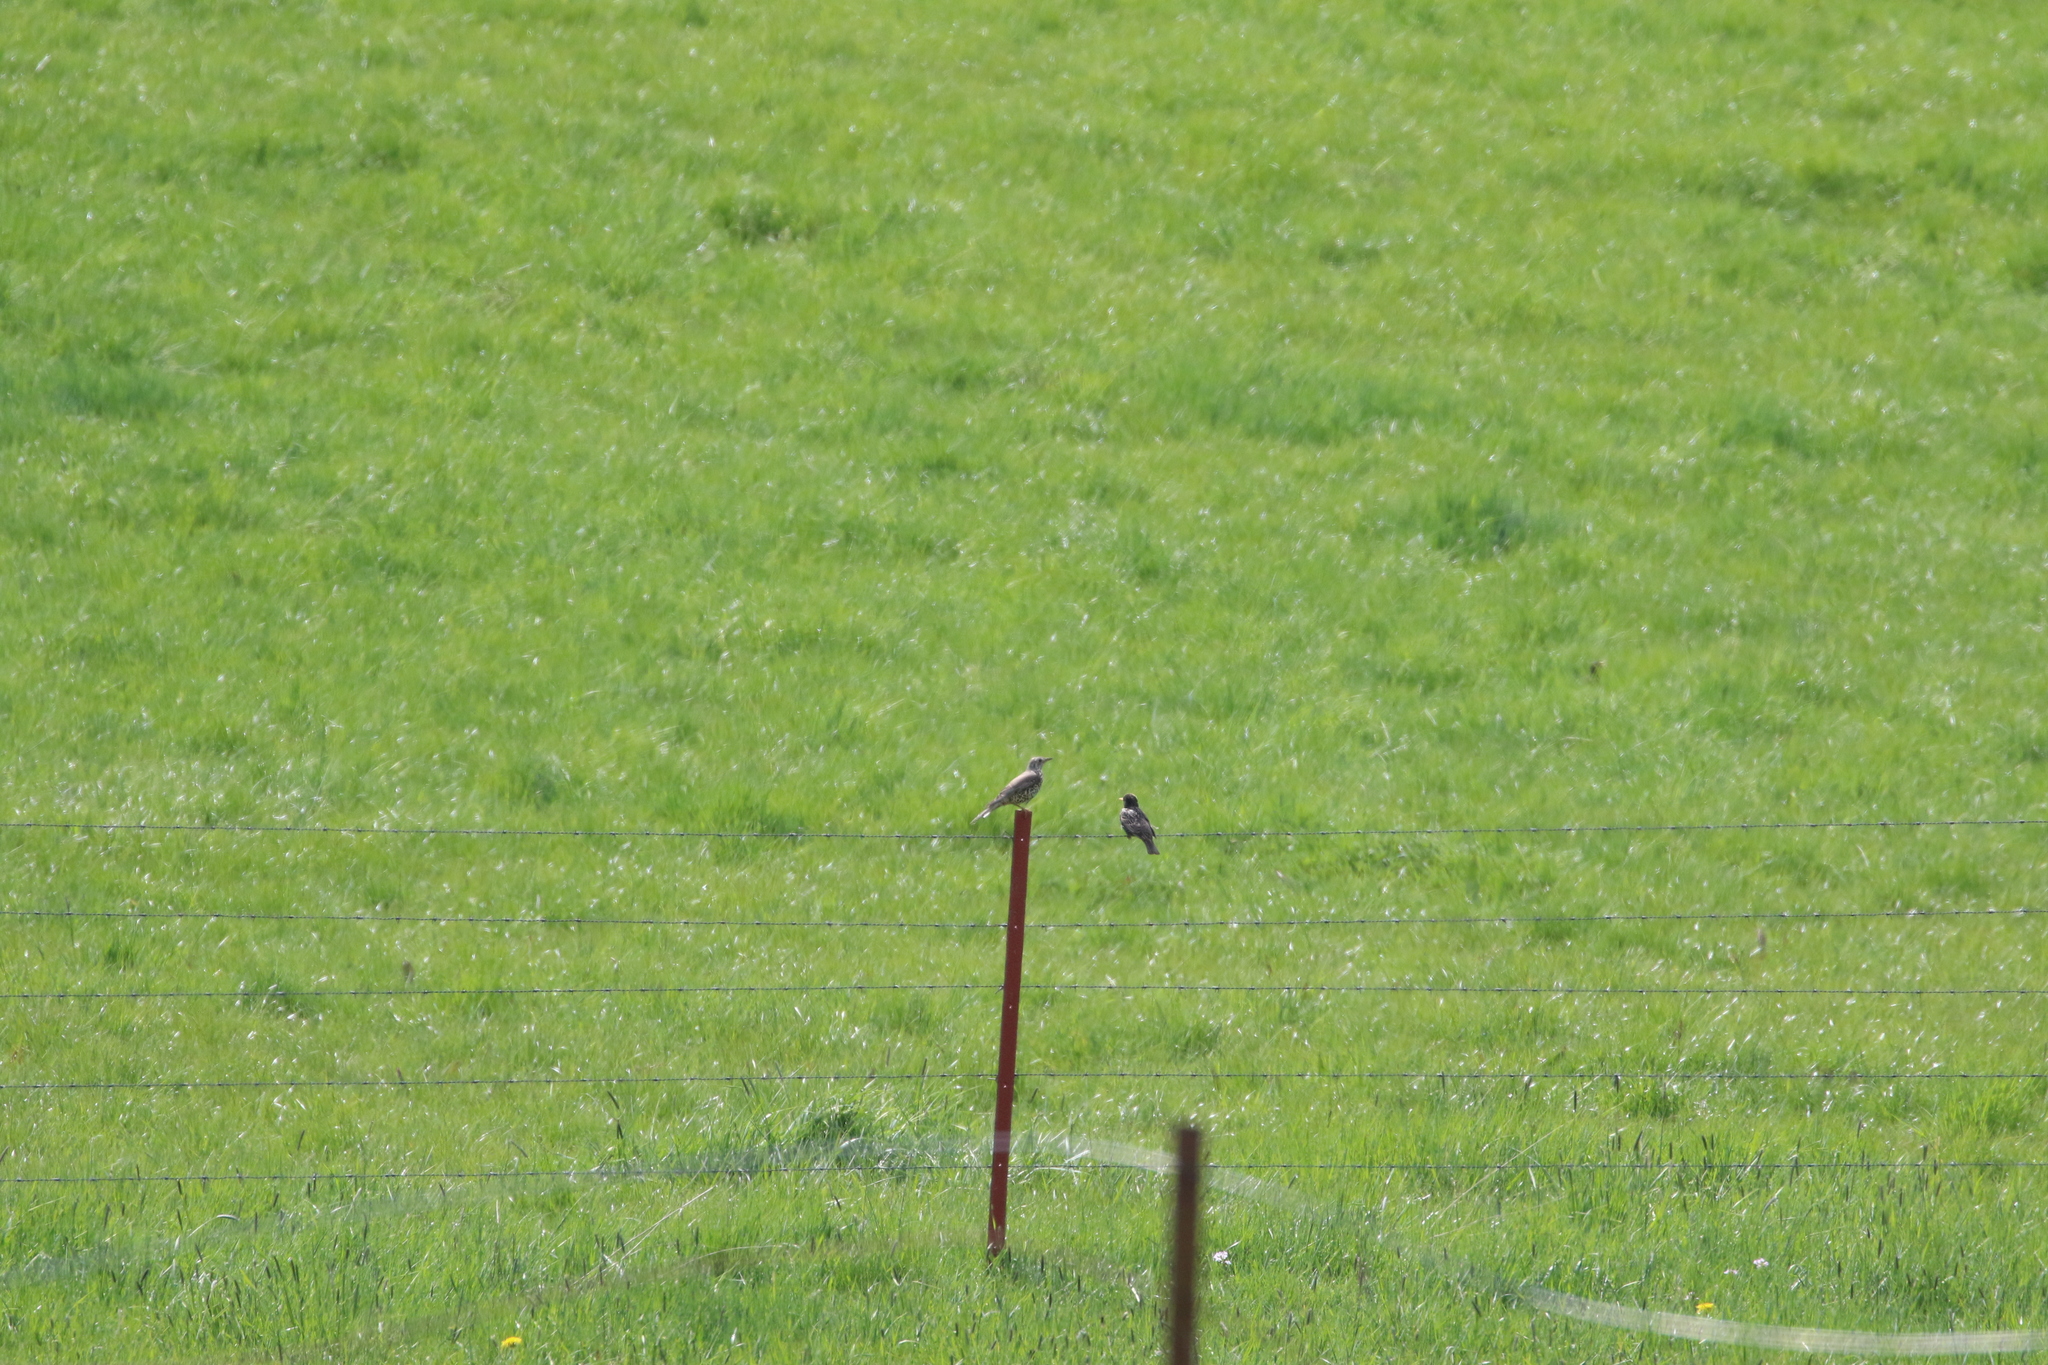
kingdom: Animalia
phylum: Chordata
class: Aves
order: Passeriformes
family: Turdidae
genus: Turdus
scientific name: Turdus viscivorus
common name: Mistle thrush
